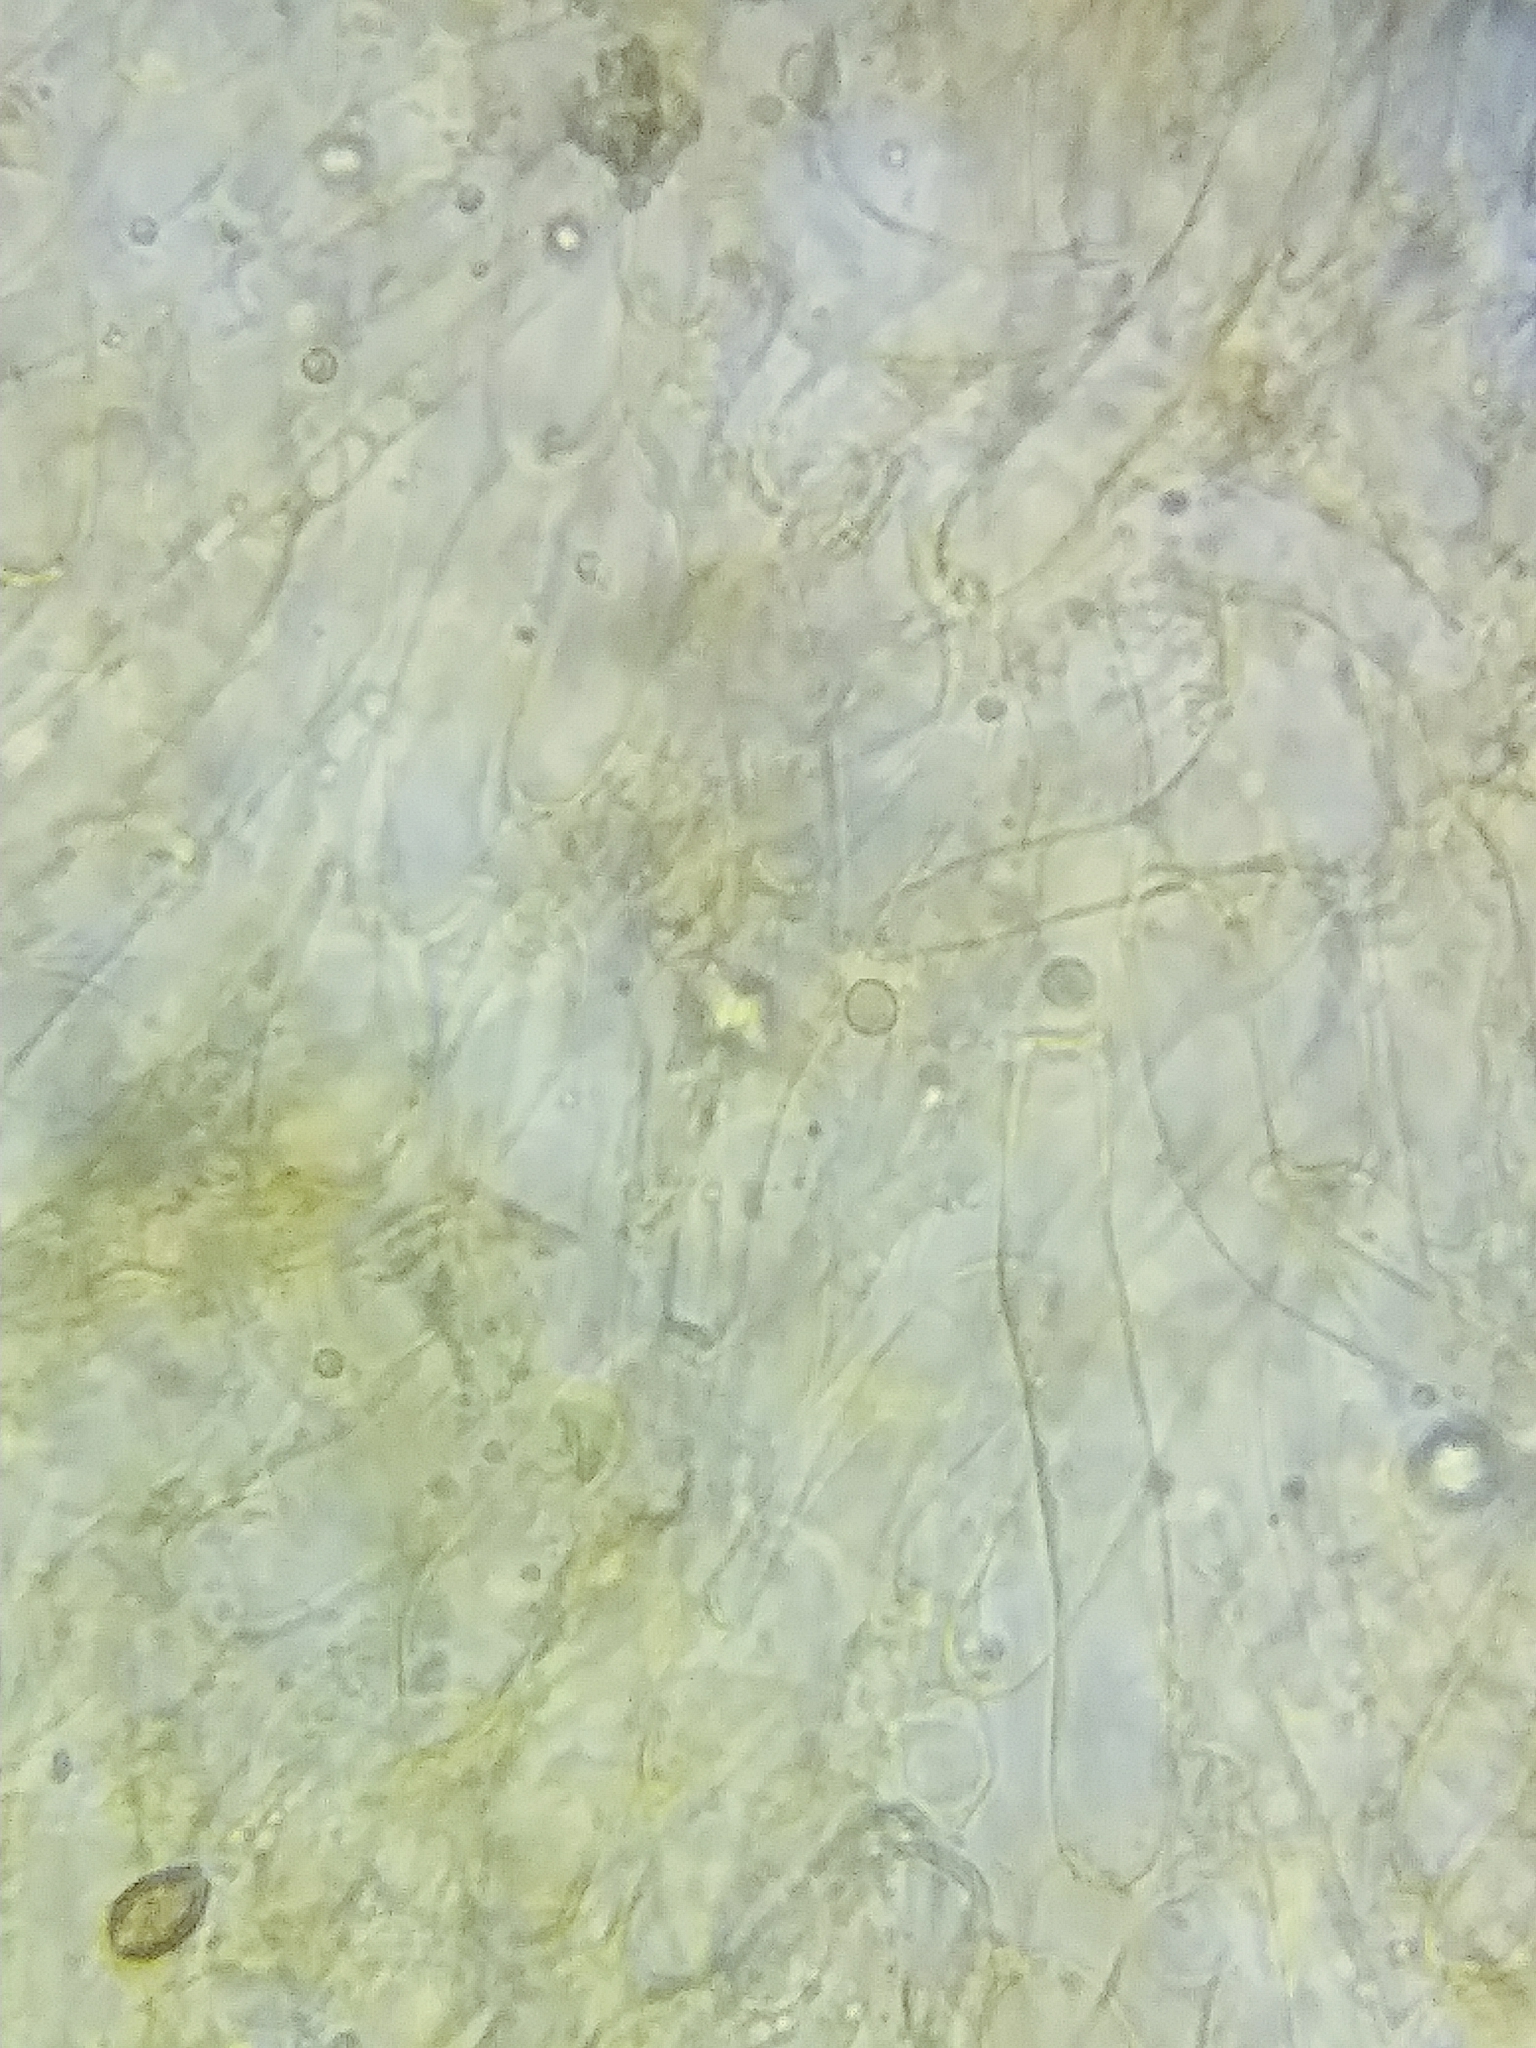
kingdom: Fungi
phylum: Basidiomycota
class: Agaricomycetes
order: Agaricales
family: Hymenogastraceae
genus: Galerina
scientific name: Galerina marginata
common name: Funeral bell
